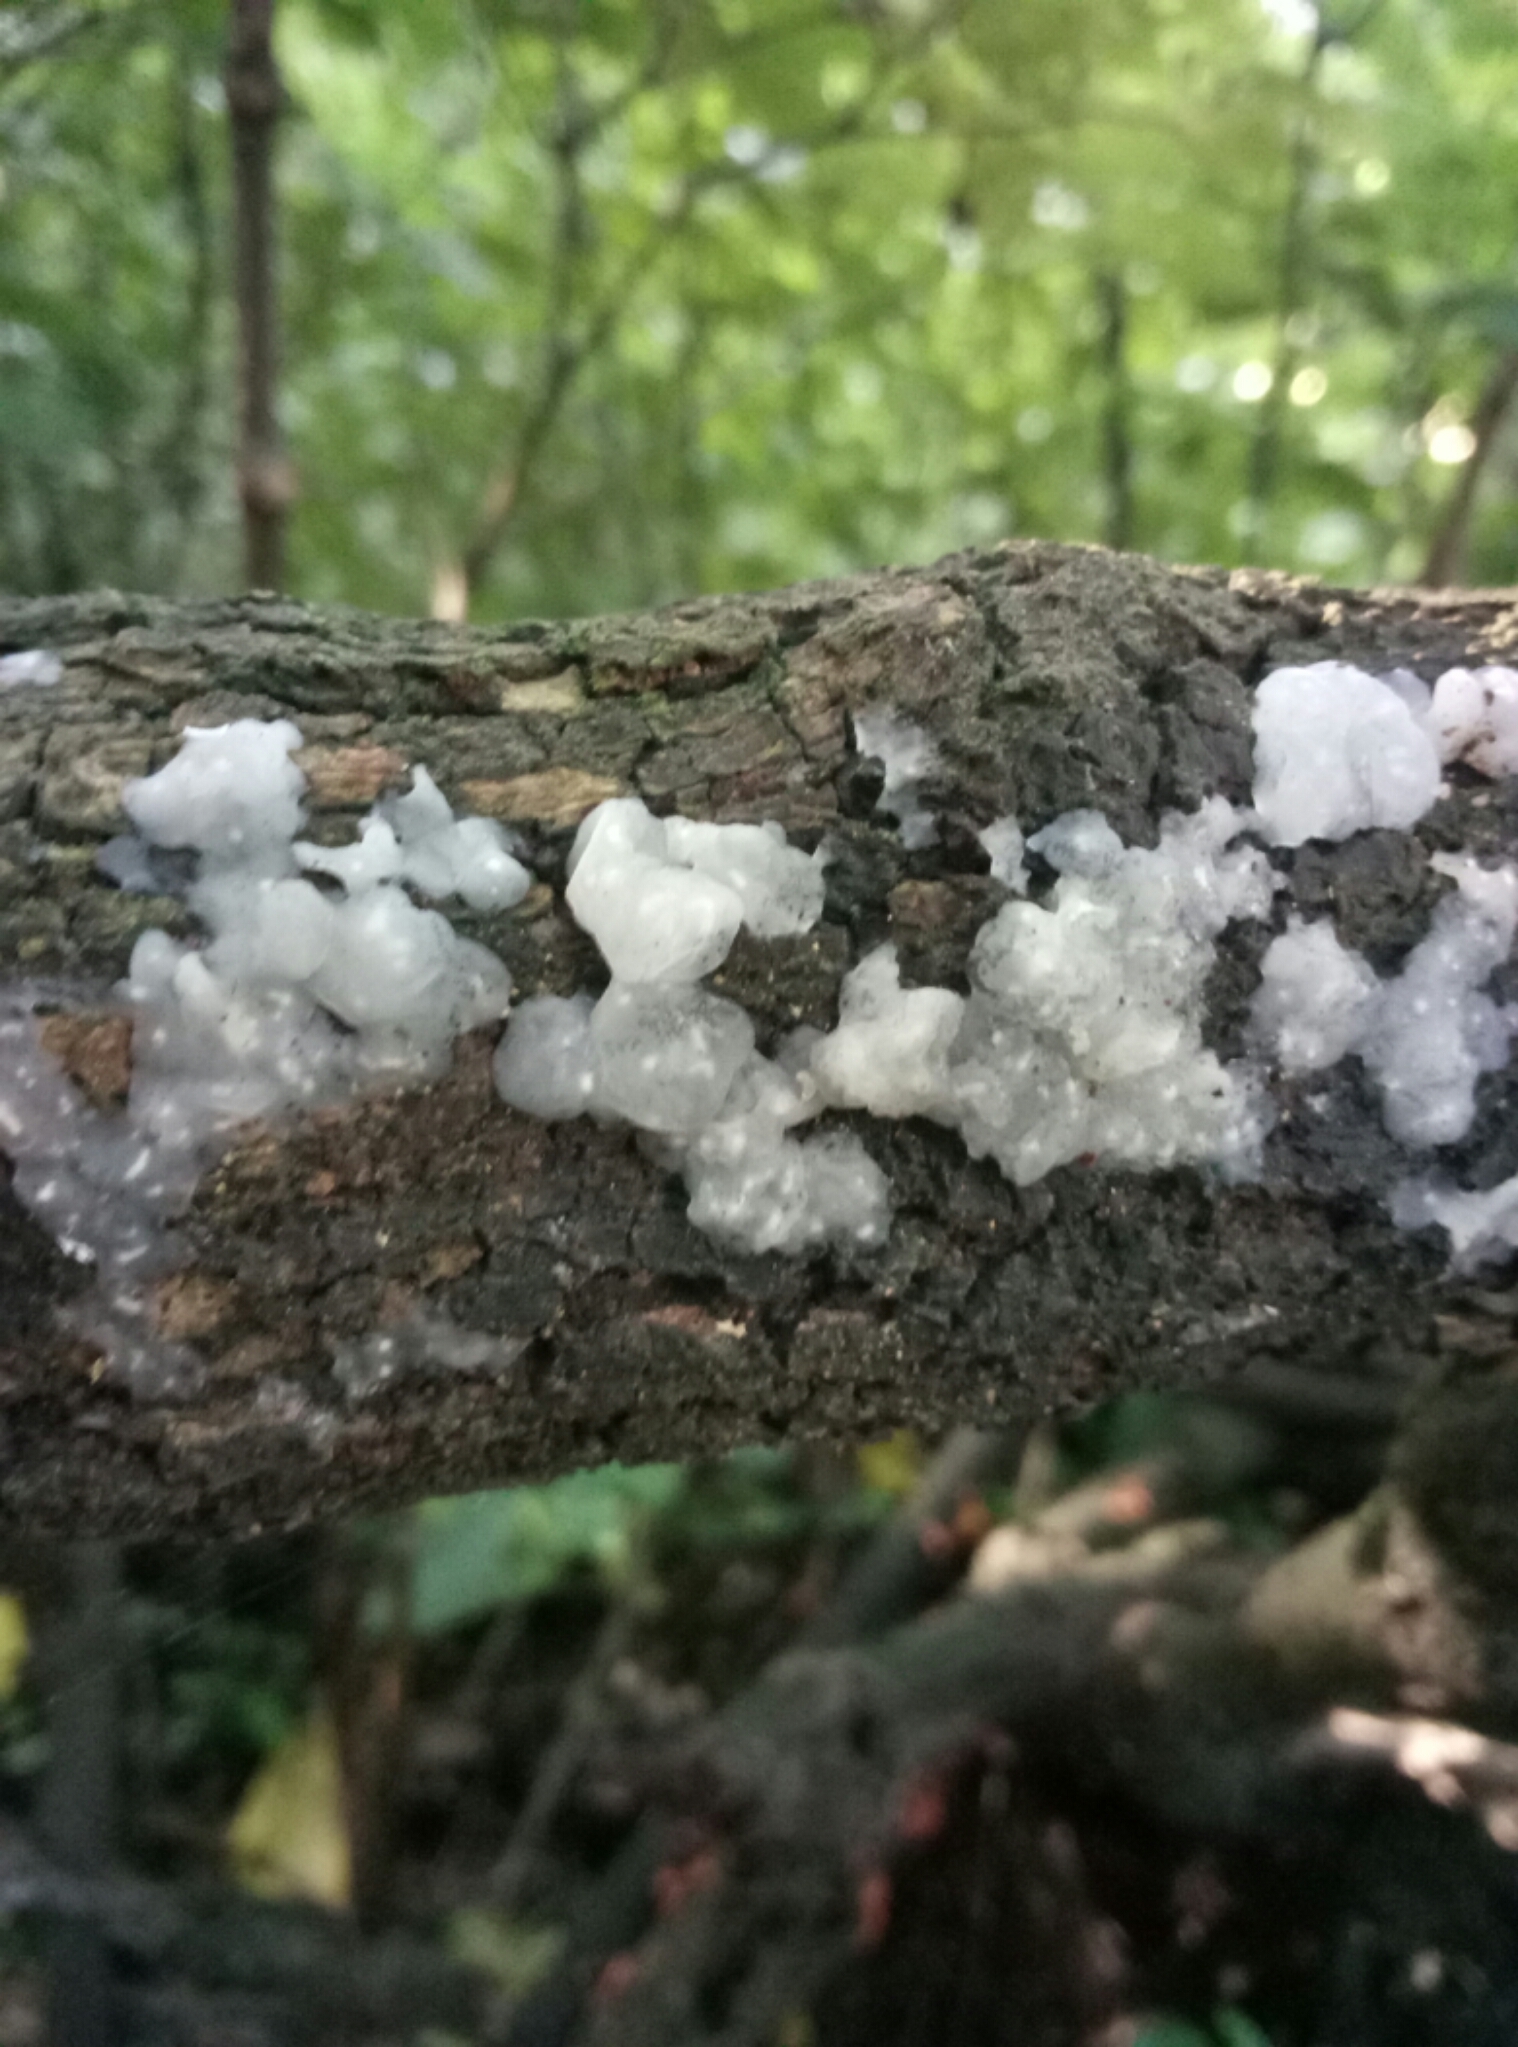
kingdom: Fungi
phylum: Basidiomycota
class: Agaricomycetes
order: Auriculariales
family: Hyaloriaceae
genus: Myxarium
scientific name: Myxarium nucleatum
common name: Crystal brain fungus
